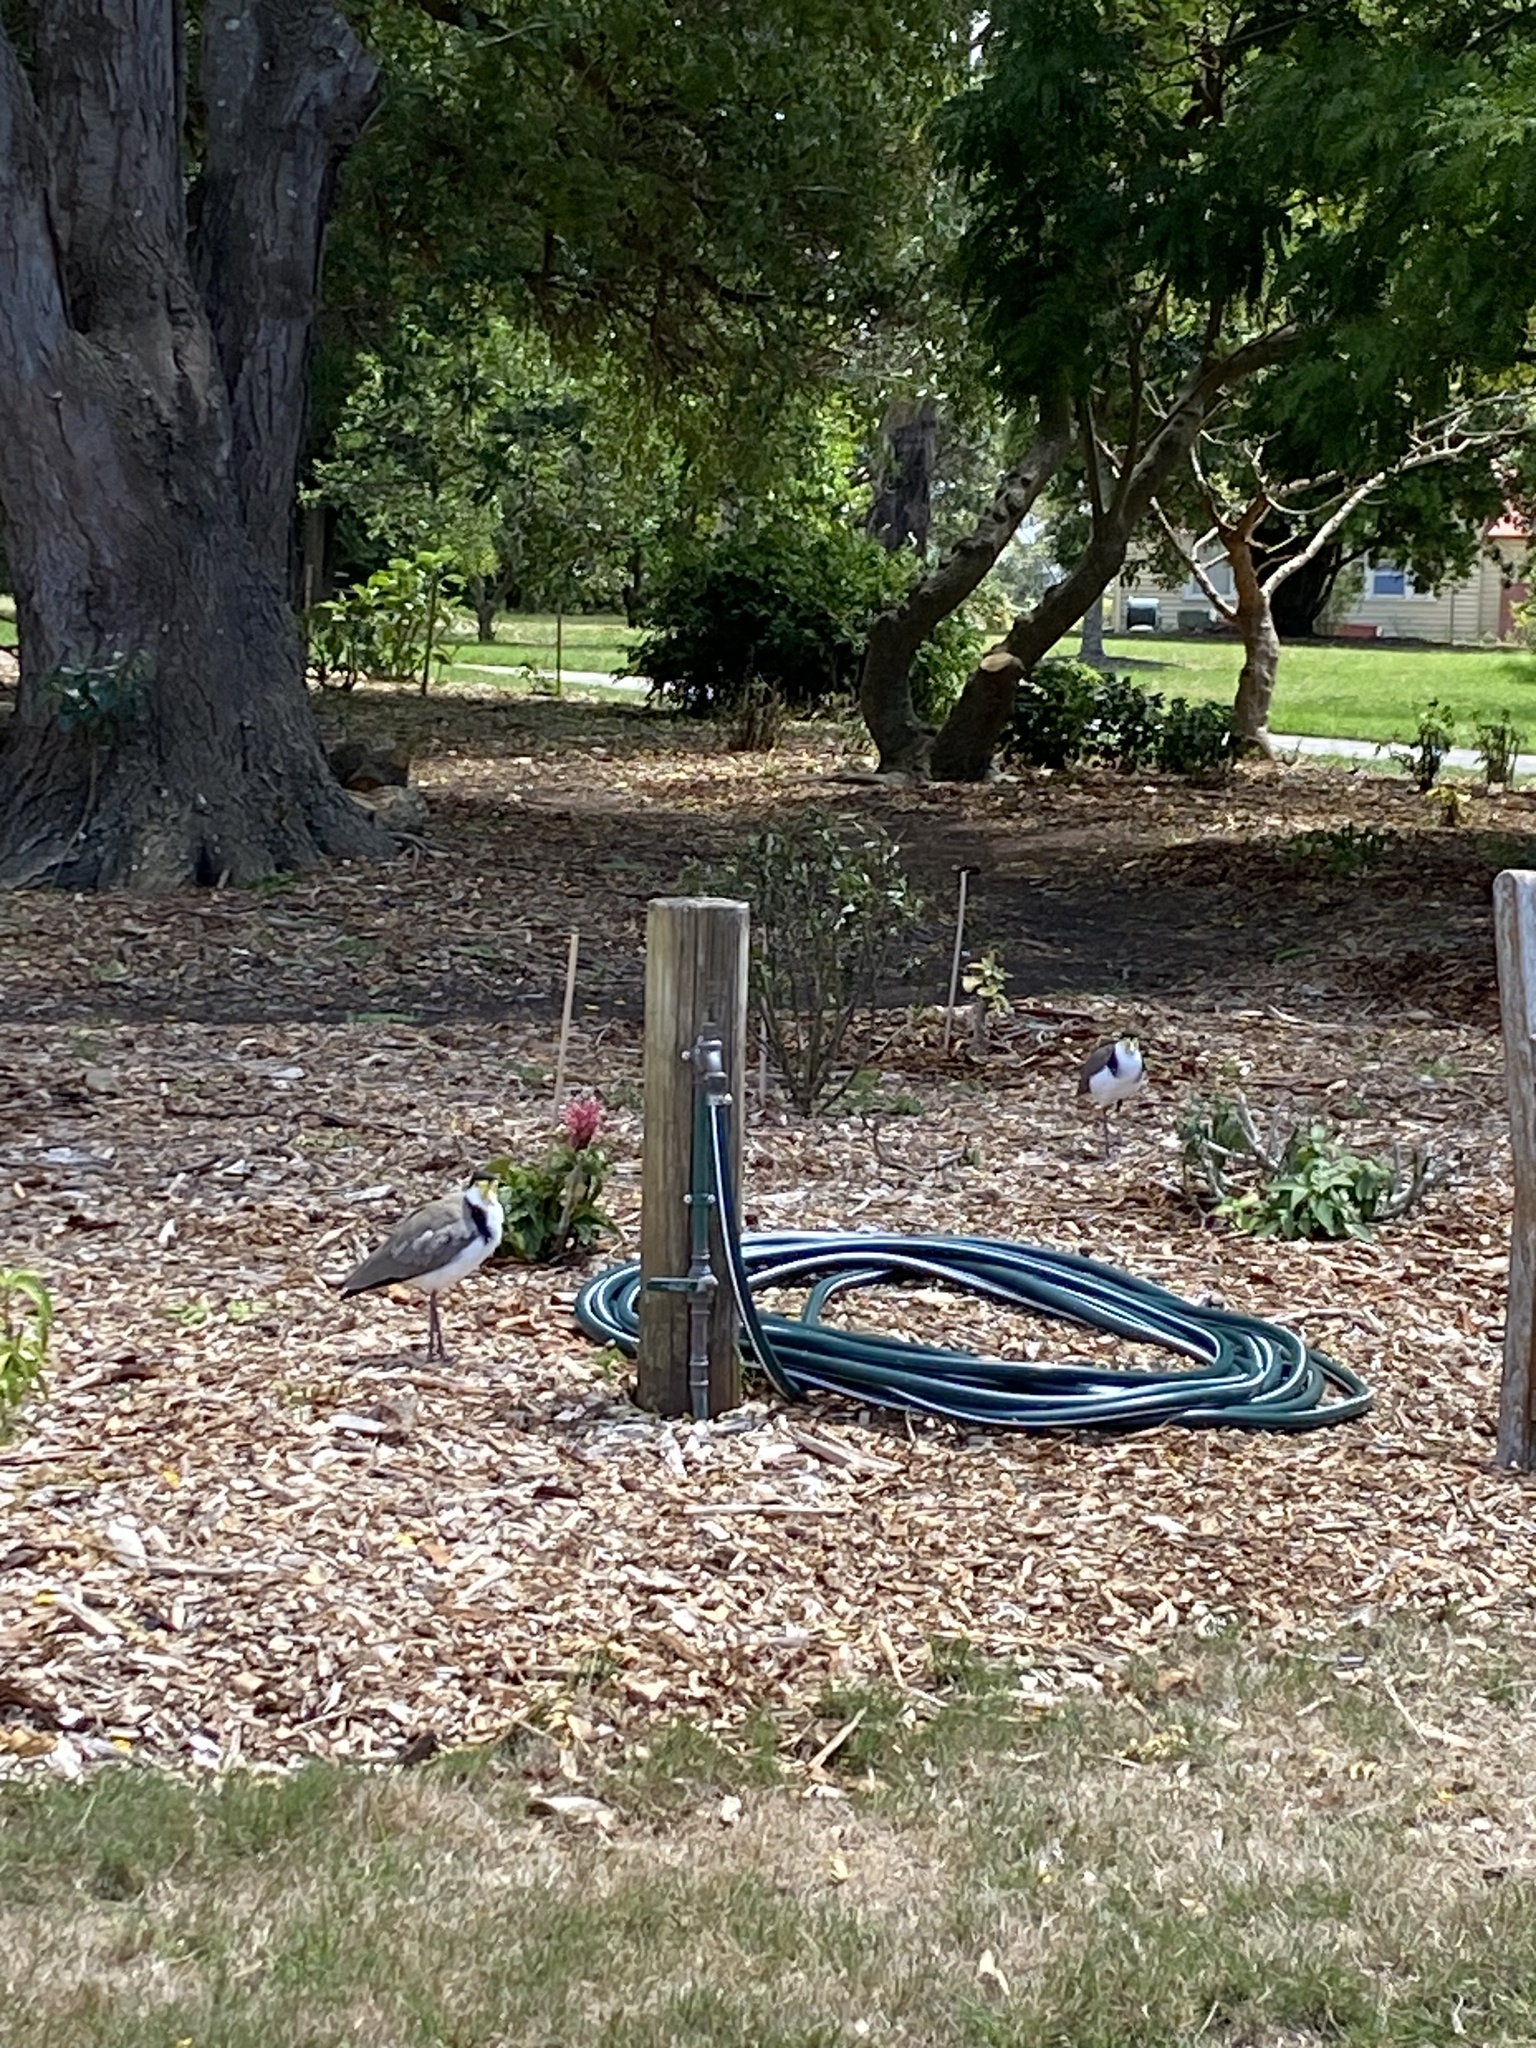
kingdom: Animalia
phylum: Chordata
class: Aves
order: Charadriiformes
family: Charadriidae
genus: Vanellus
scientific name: Vanellus miles
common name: Masked lapwing
